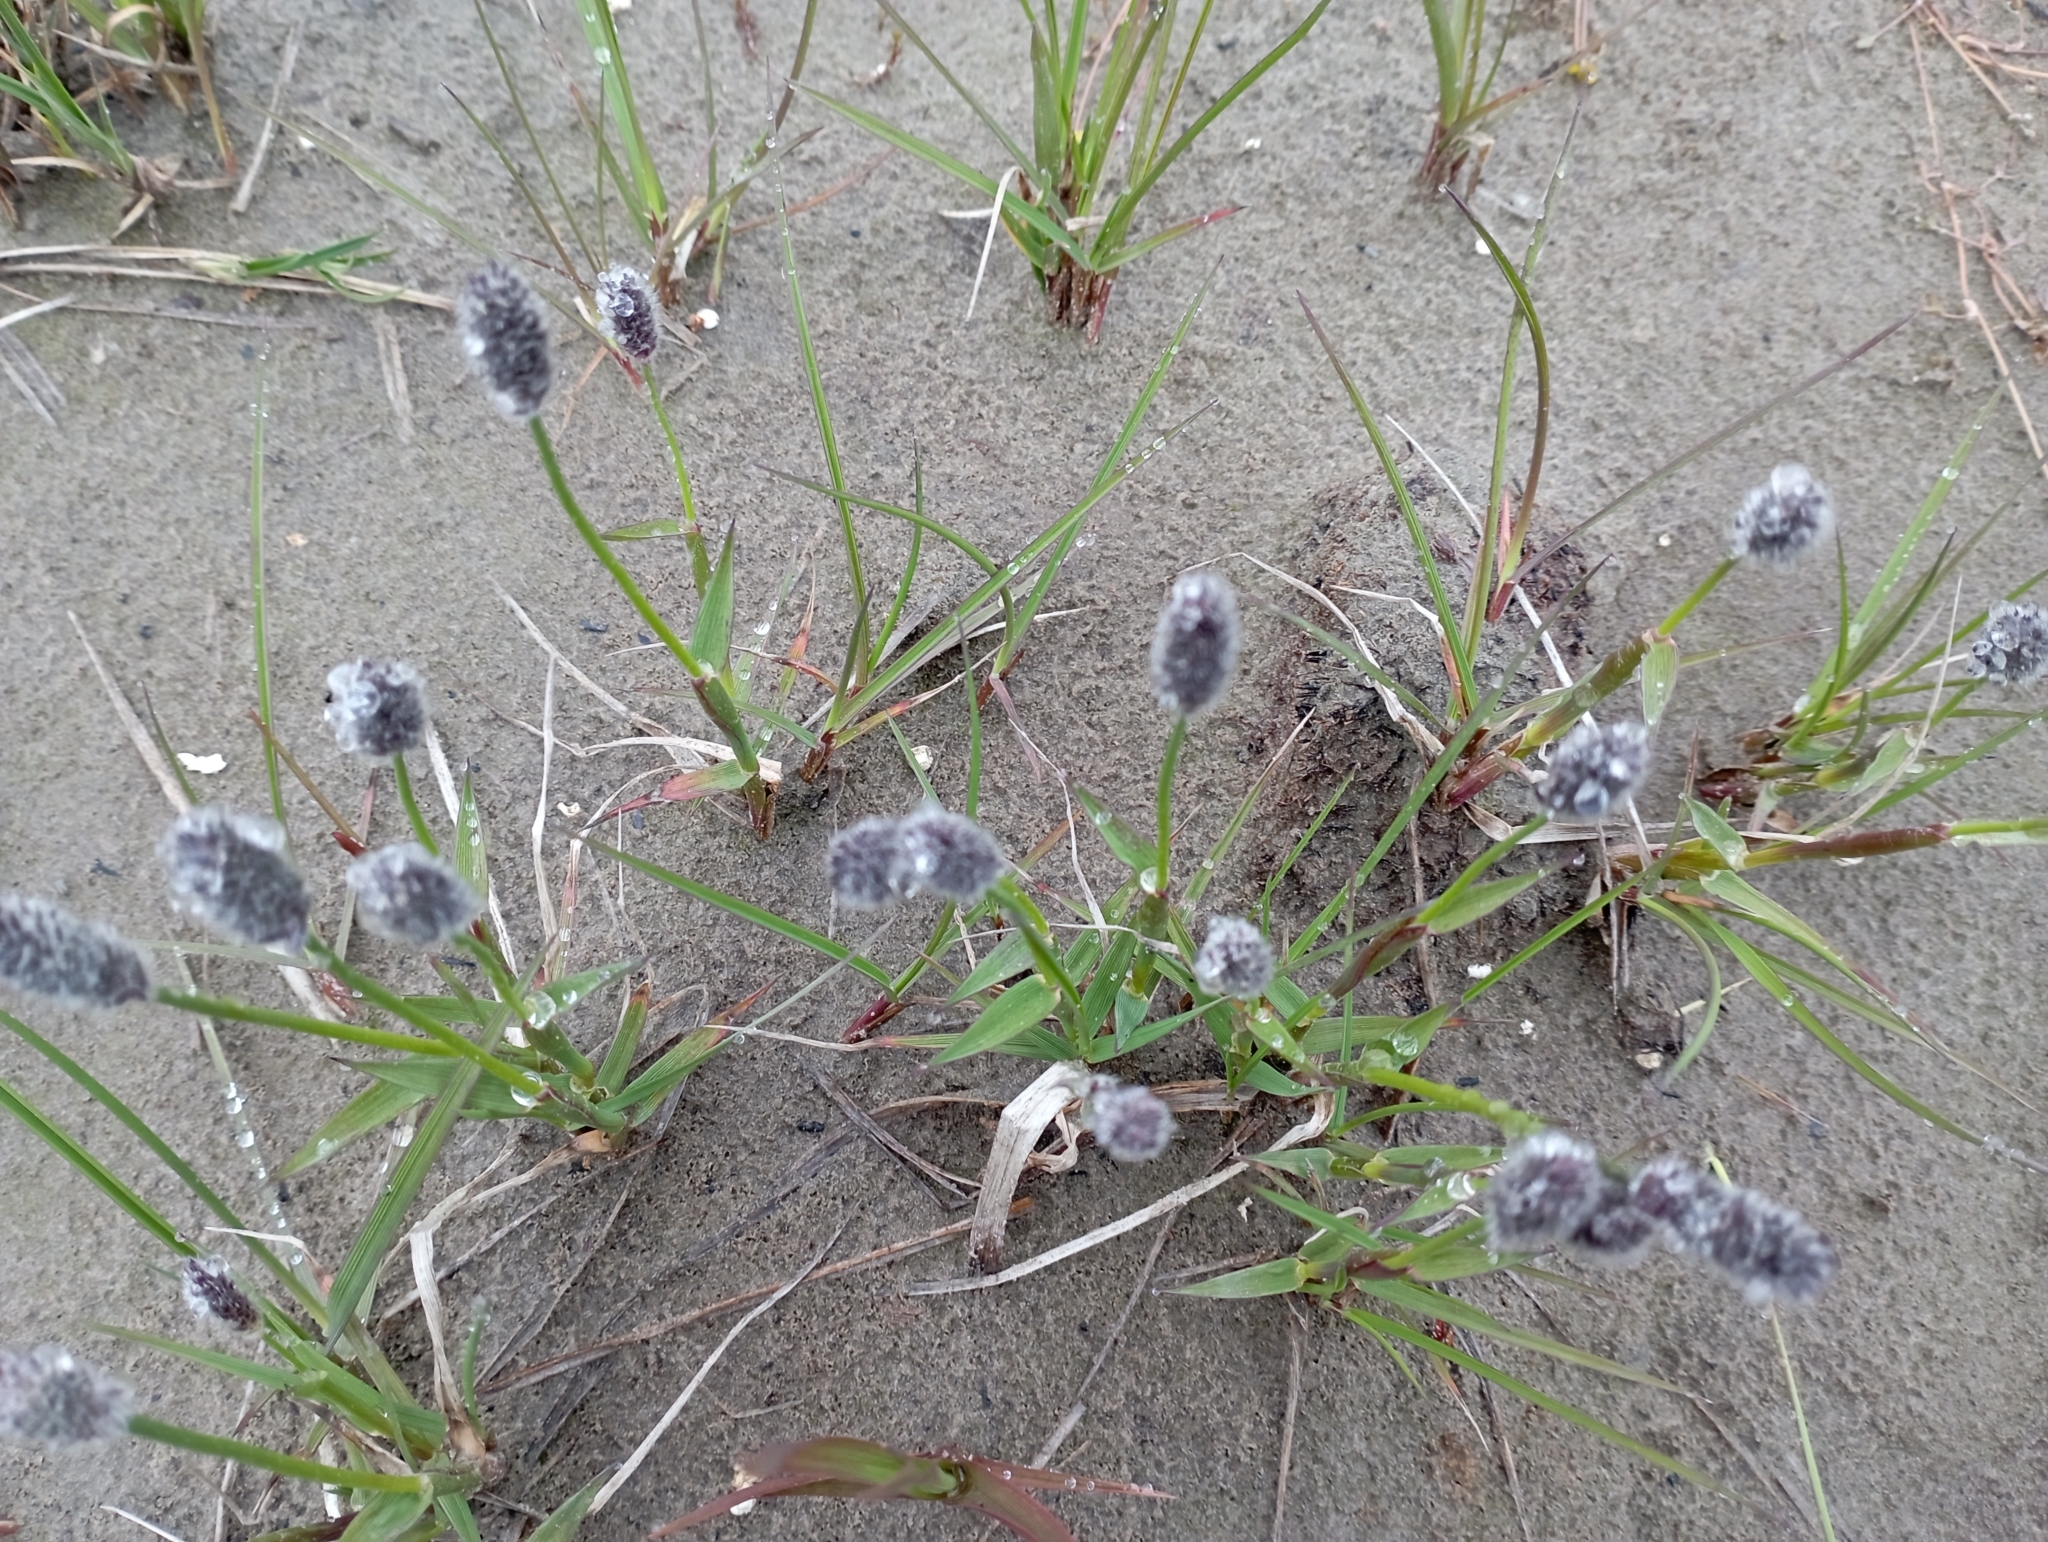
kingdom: Plantae
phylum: Tracheophyta
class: Liliopsida
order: Poales
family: Poaceae
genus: Alopecurus
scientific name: Alopecurus magellanicus
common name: Alpine foxtail
